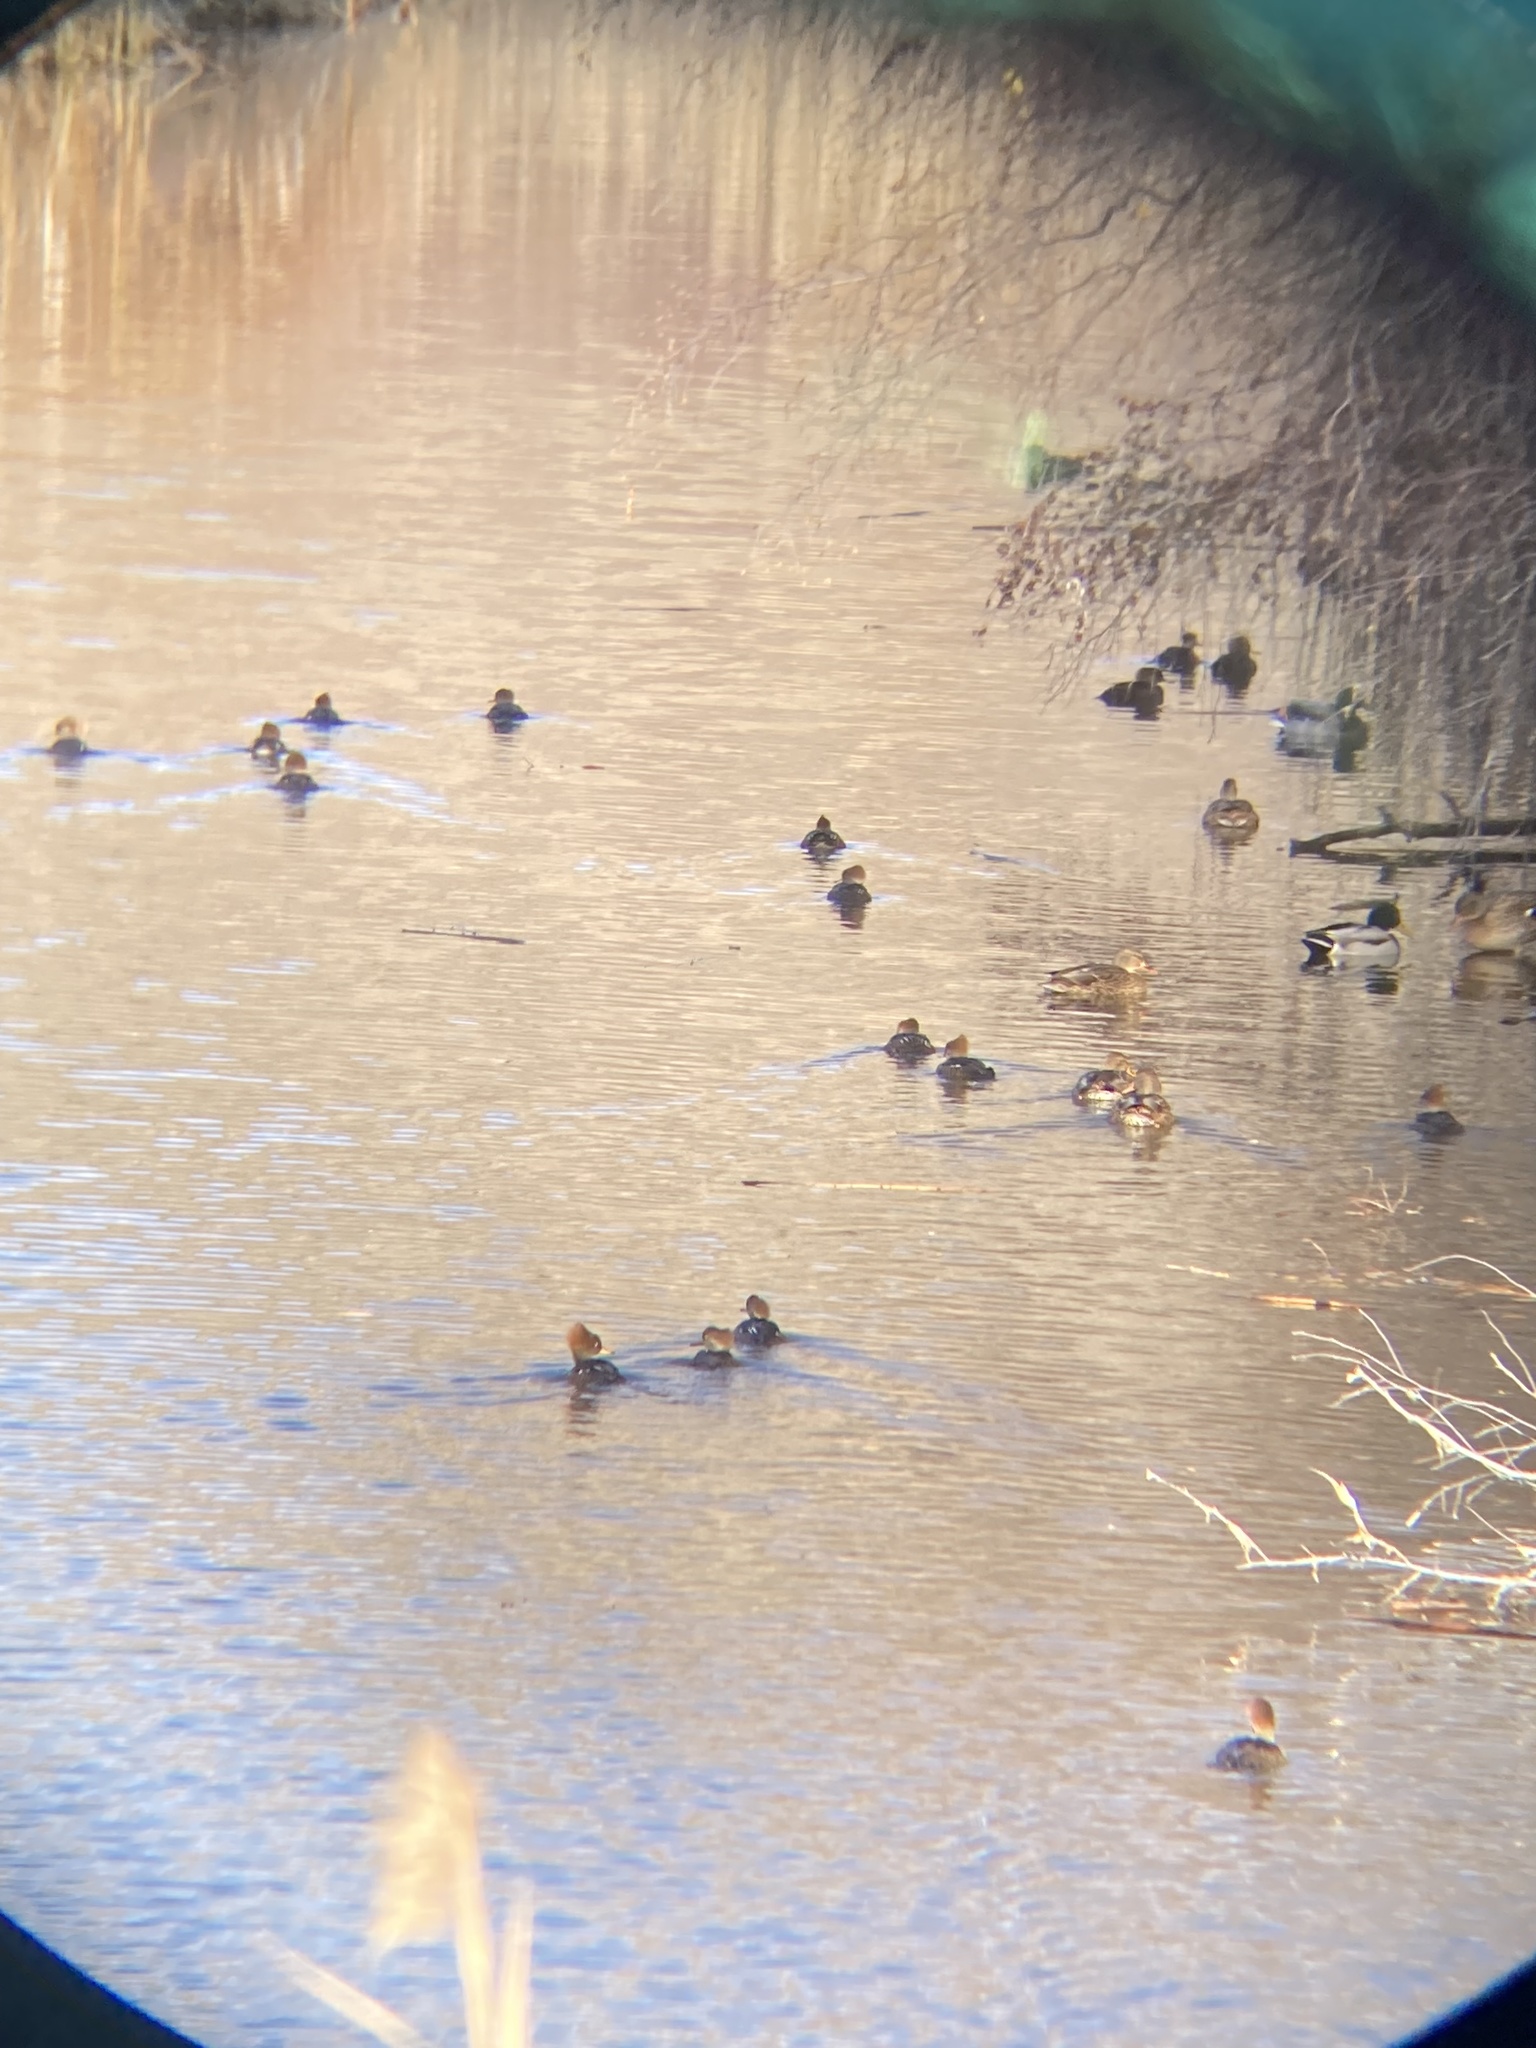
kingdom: Animalia
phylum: Chordata
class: Aves
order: Anseriformes
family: Anatidae
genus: Lophodytes
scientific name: Lophodytes cucullatus
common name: Hooded merganser
